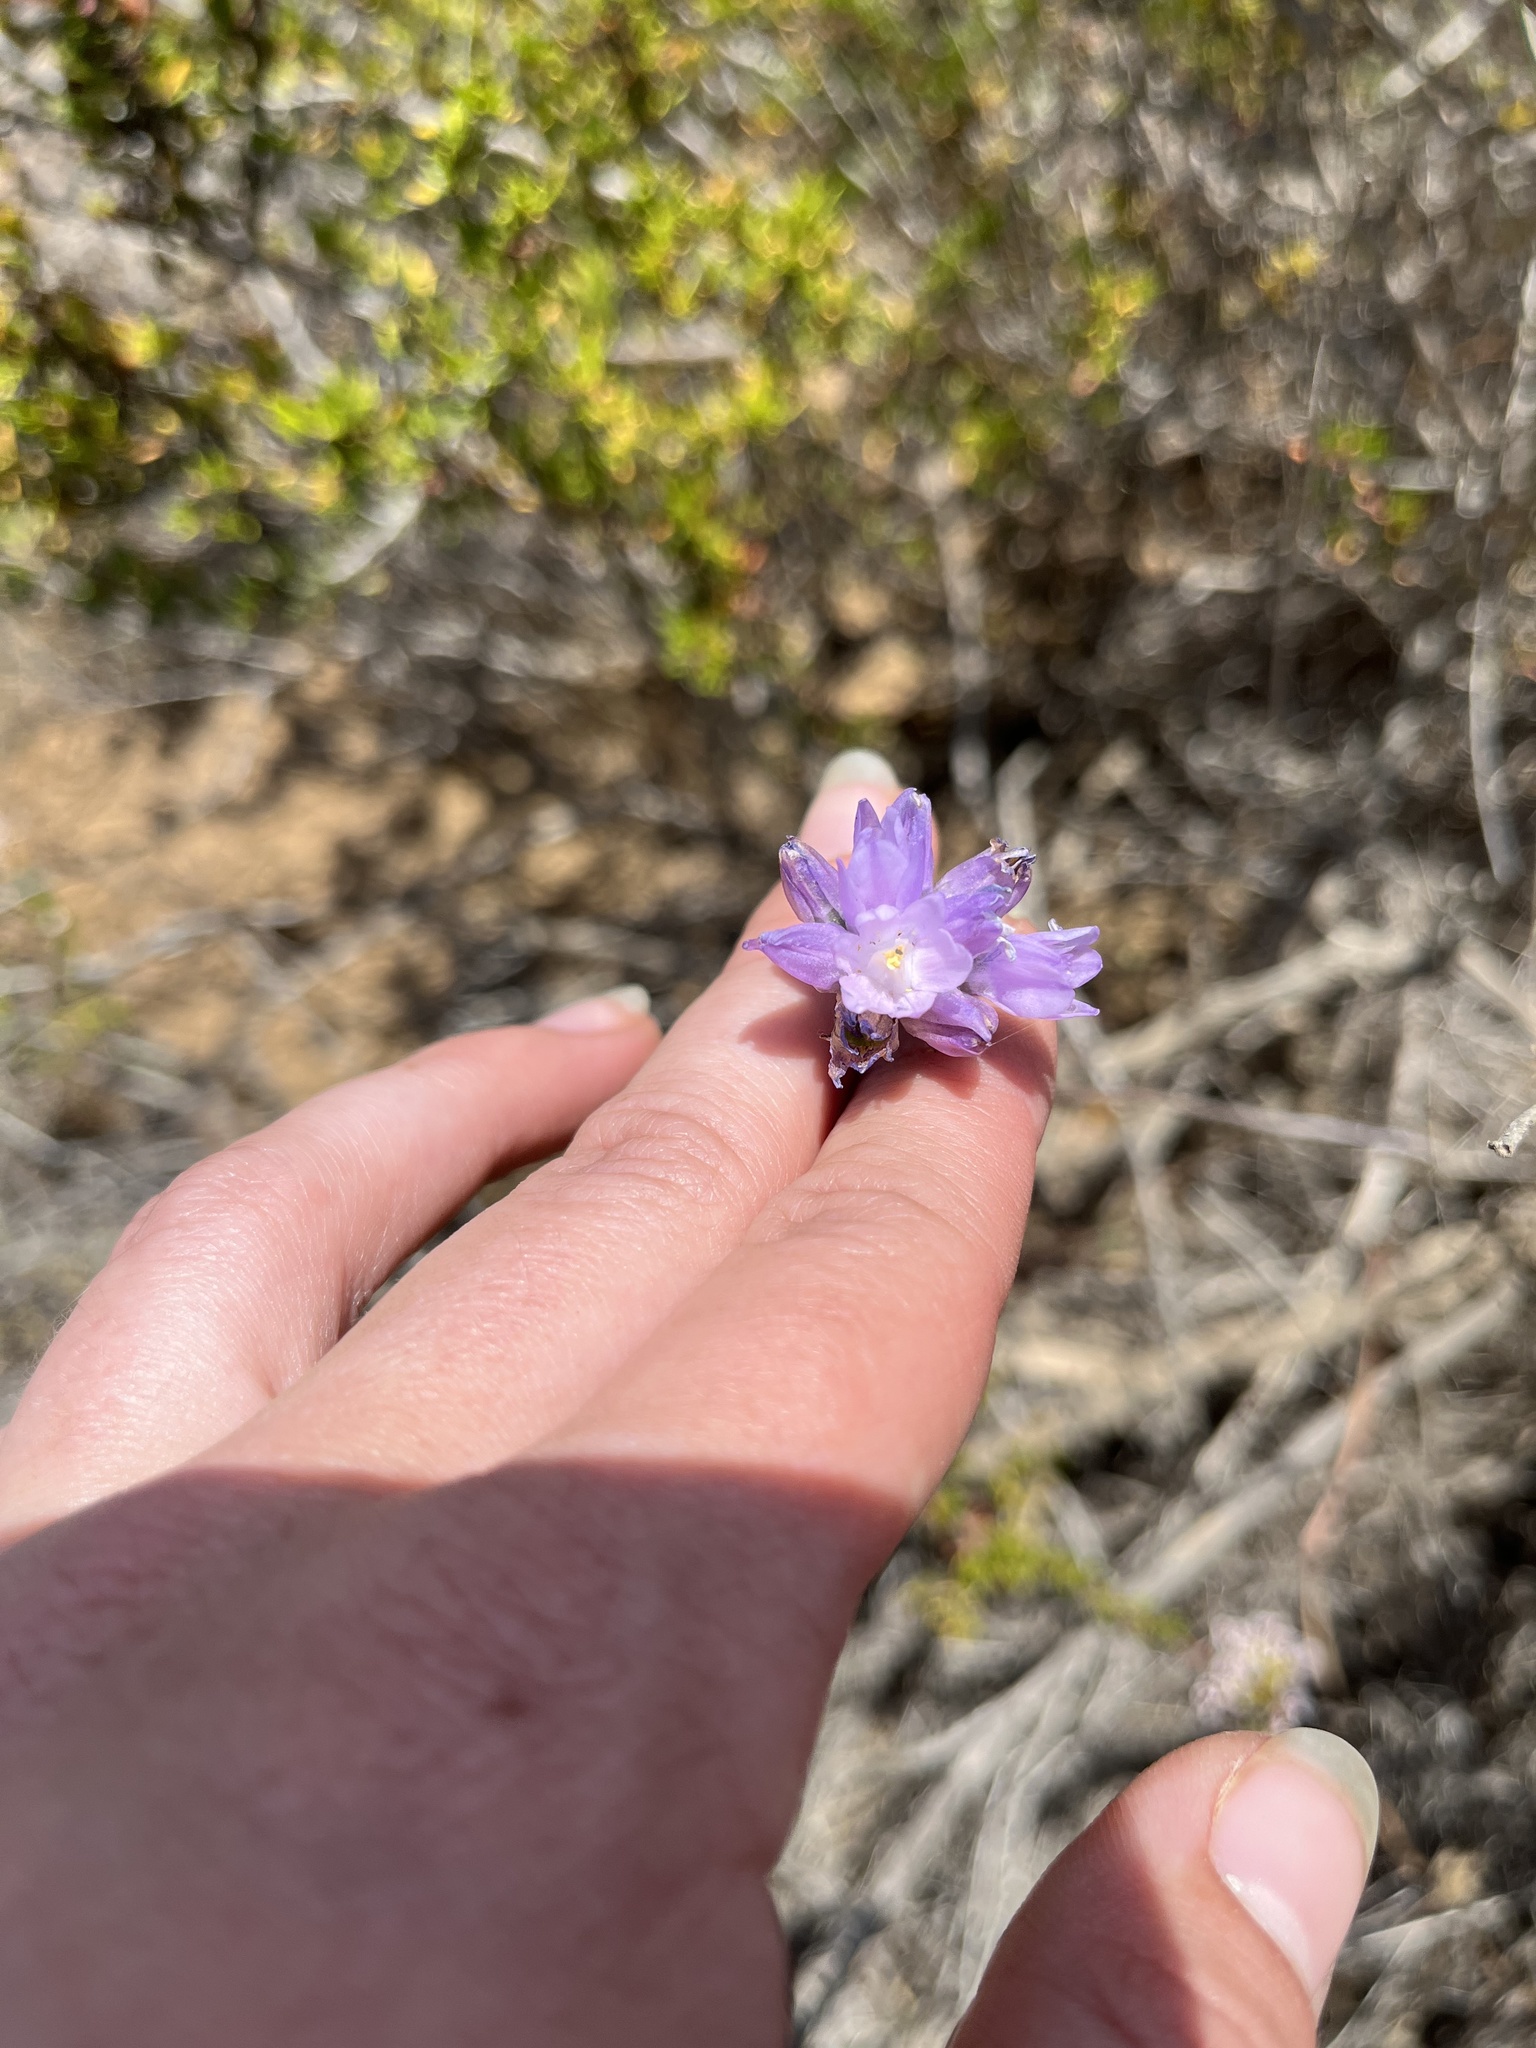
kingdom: Plantae
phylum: Tracheophyta
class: Liliopsida
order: Asparagales
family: Asparagaceae
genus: Dipterostemon
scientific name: Dipterostemon capitatus
